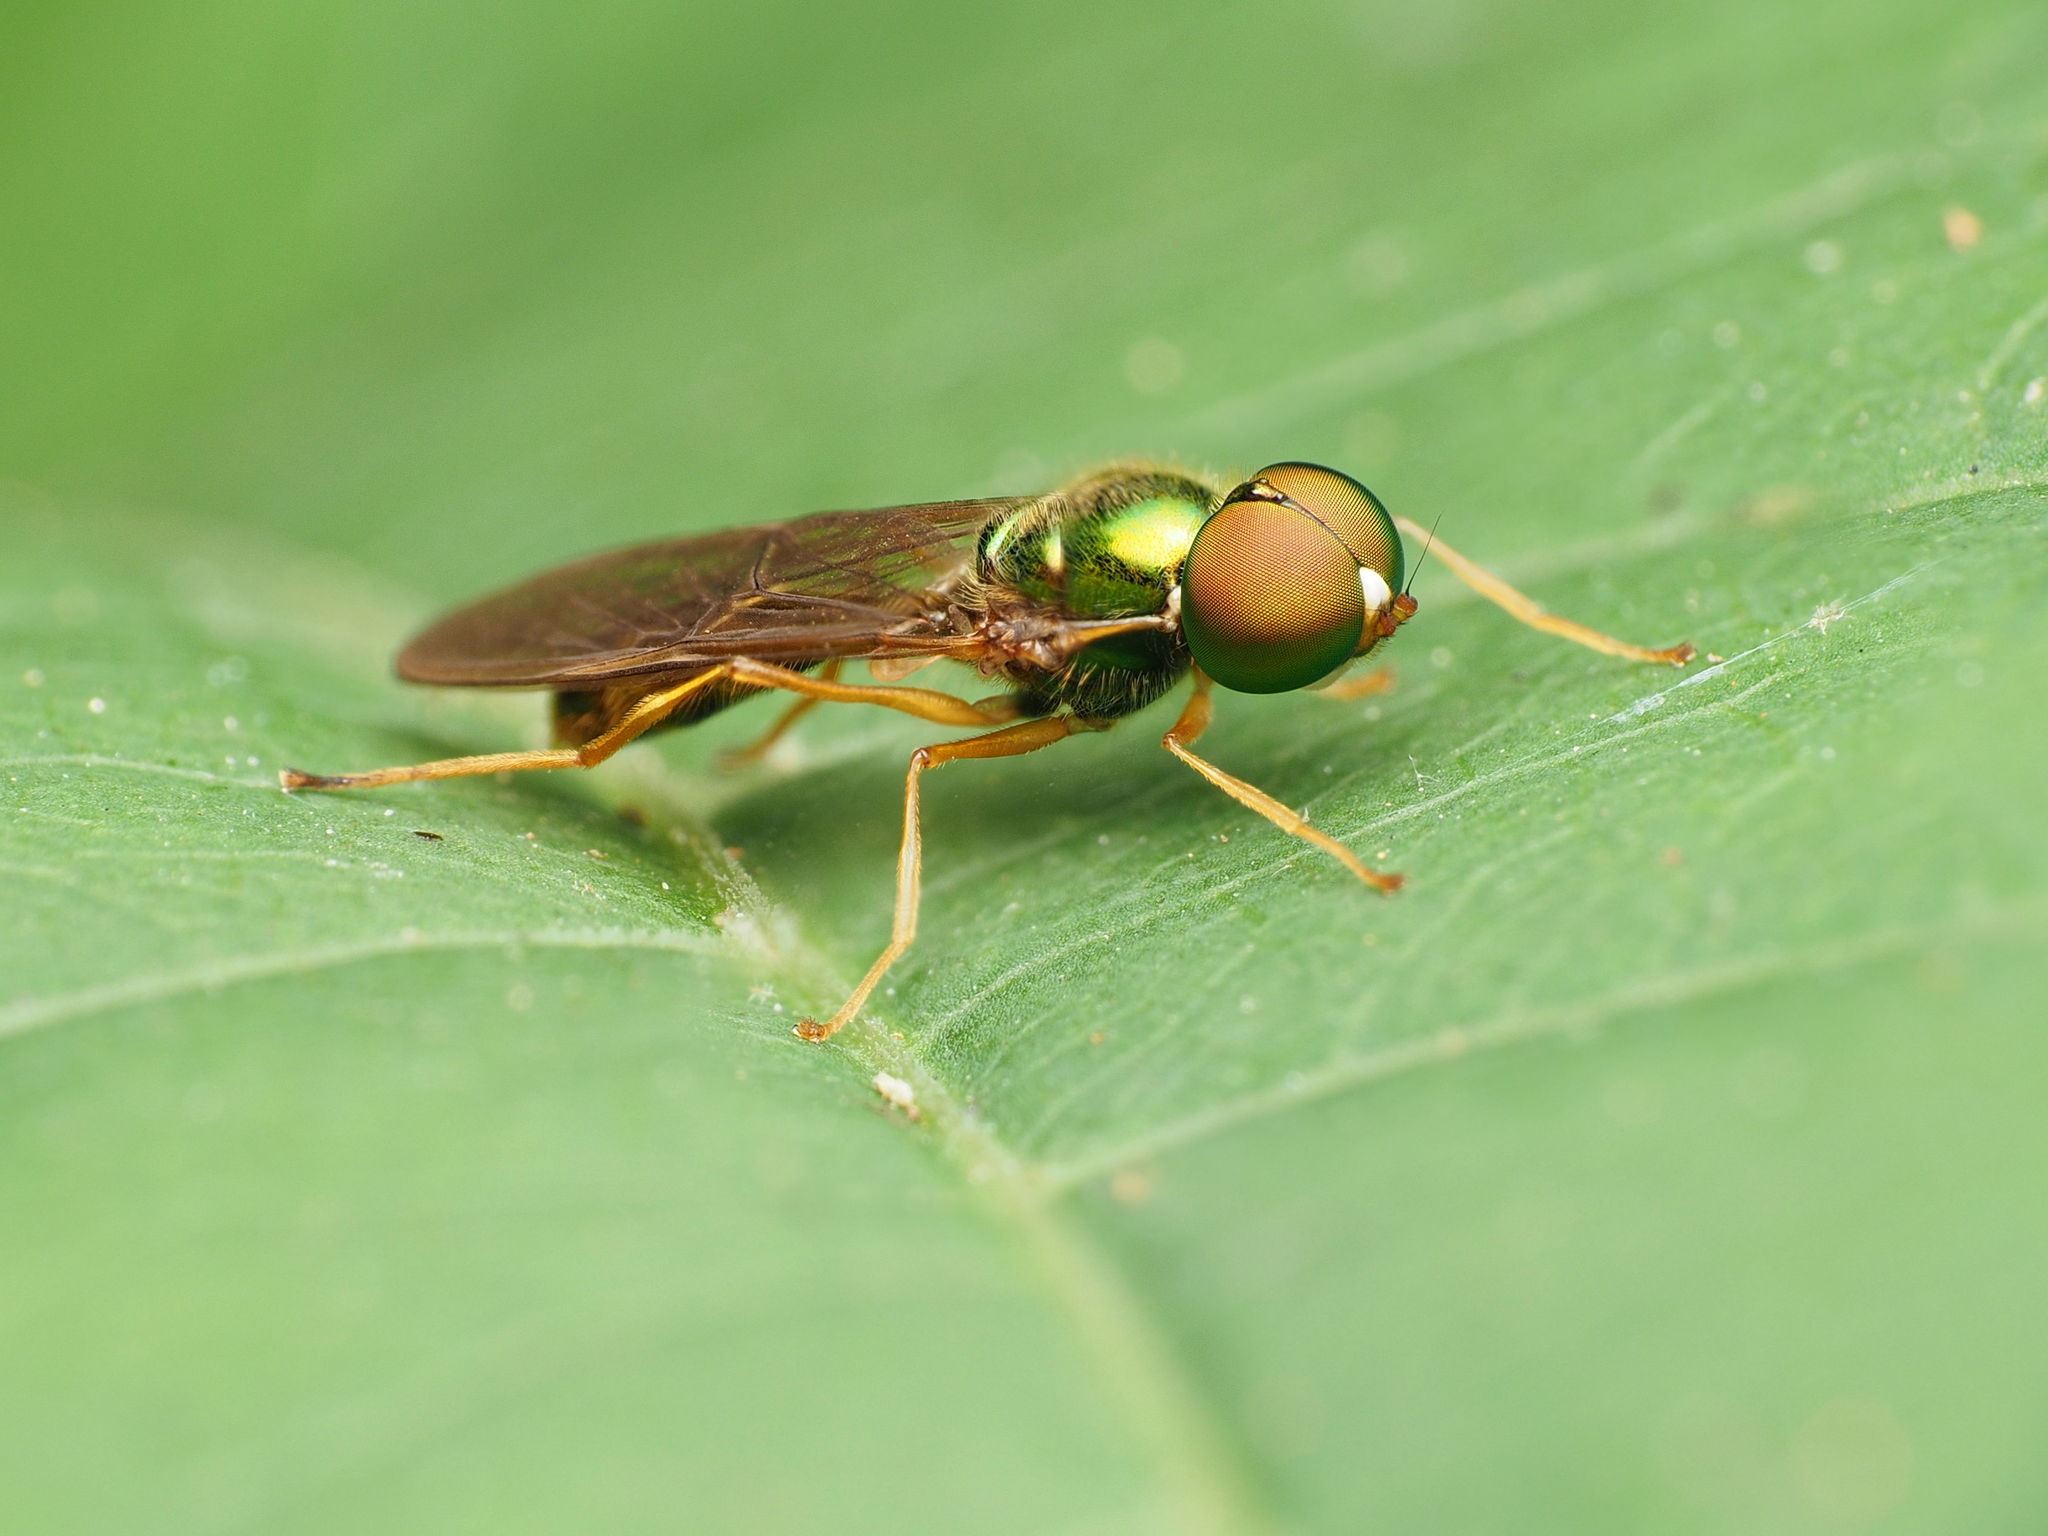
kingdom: Animalia
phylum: Arthropoda
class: Insecta
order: Diptera
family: Stratiomyidae
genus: Sargus
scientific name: Sargus fasciatus
